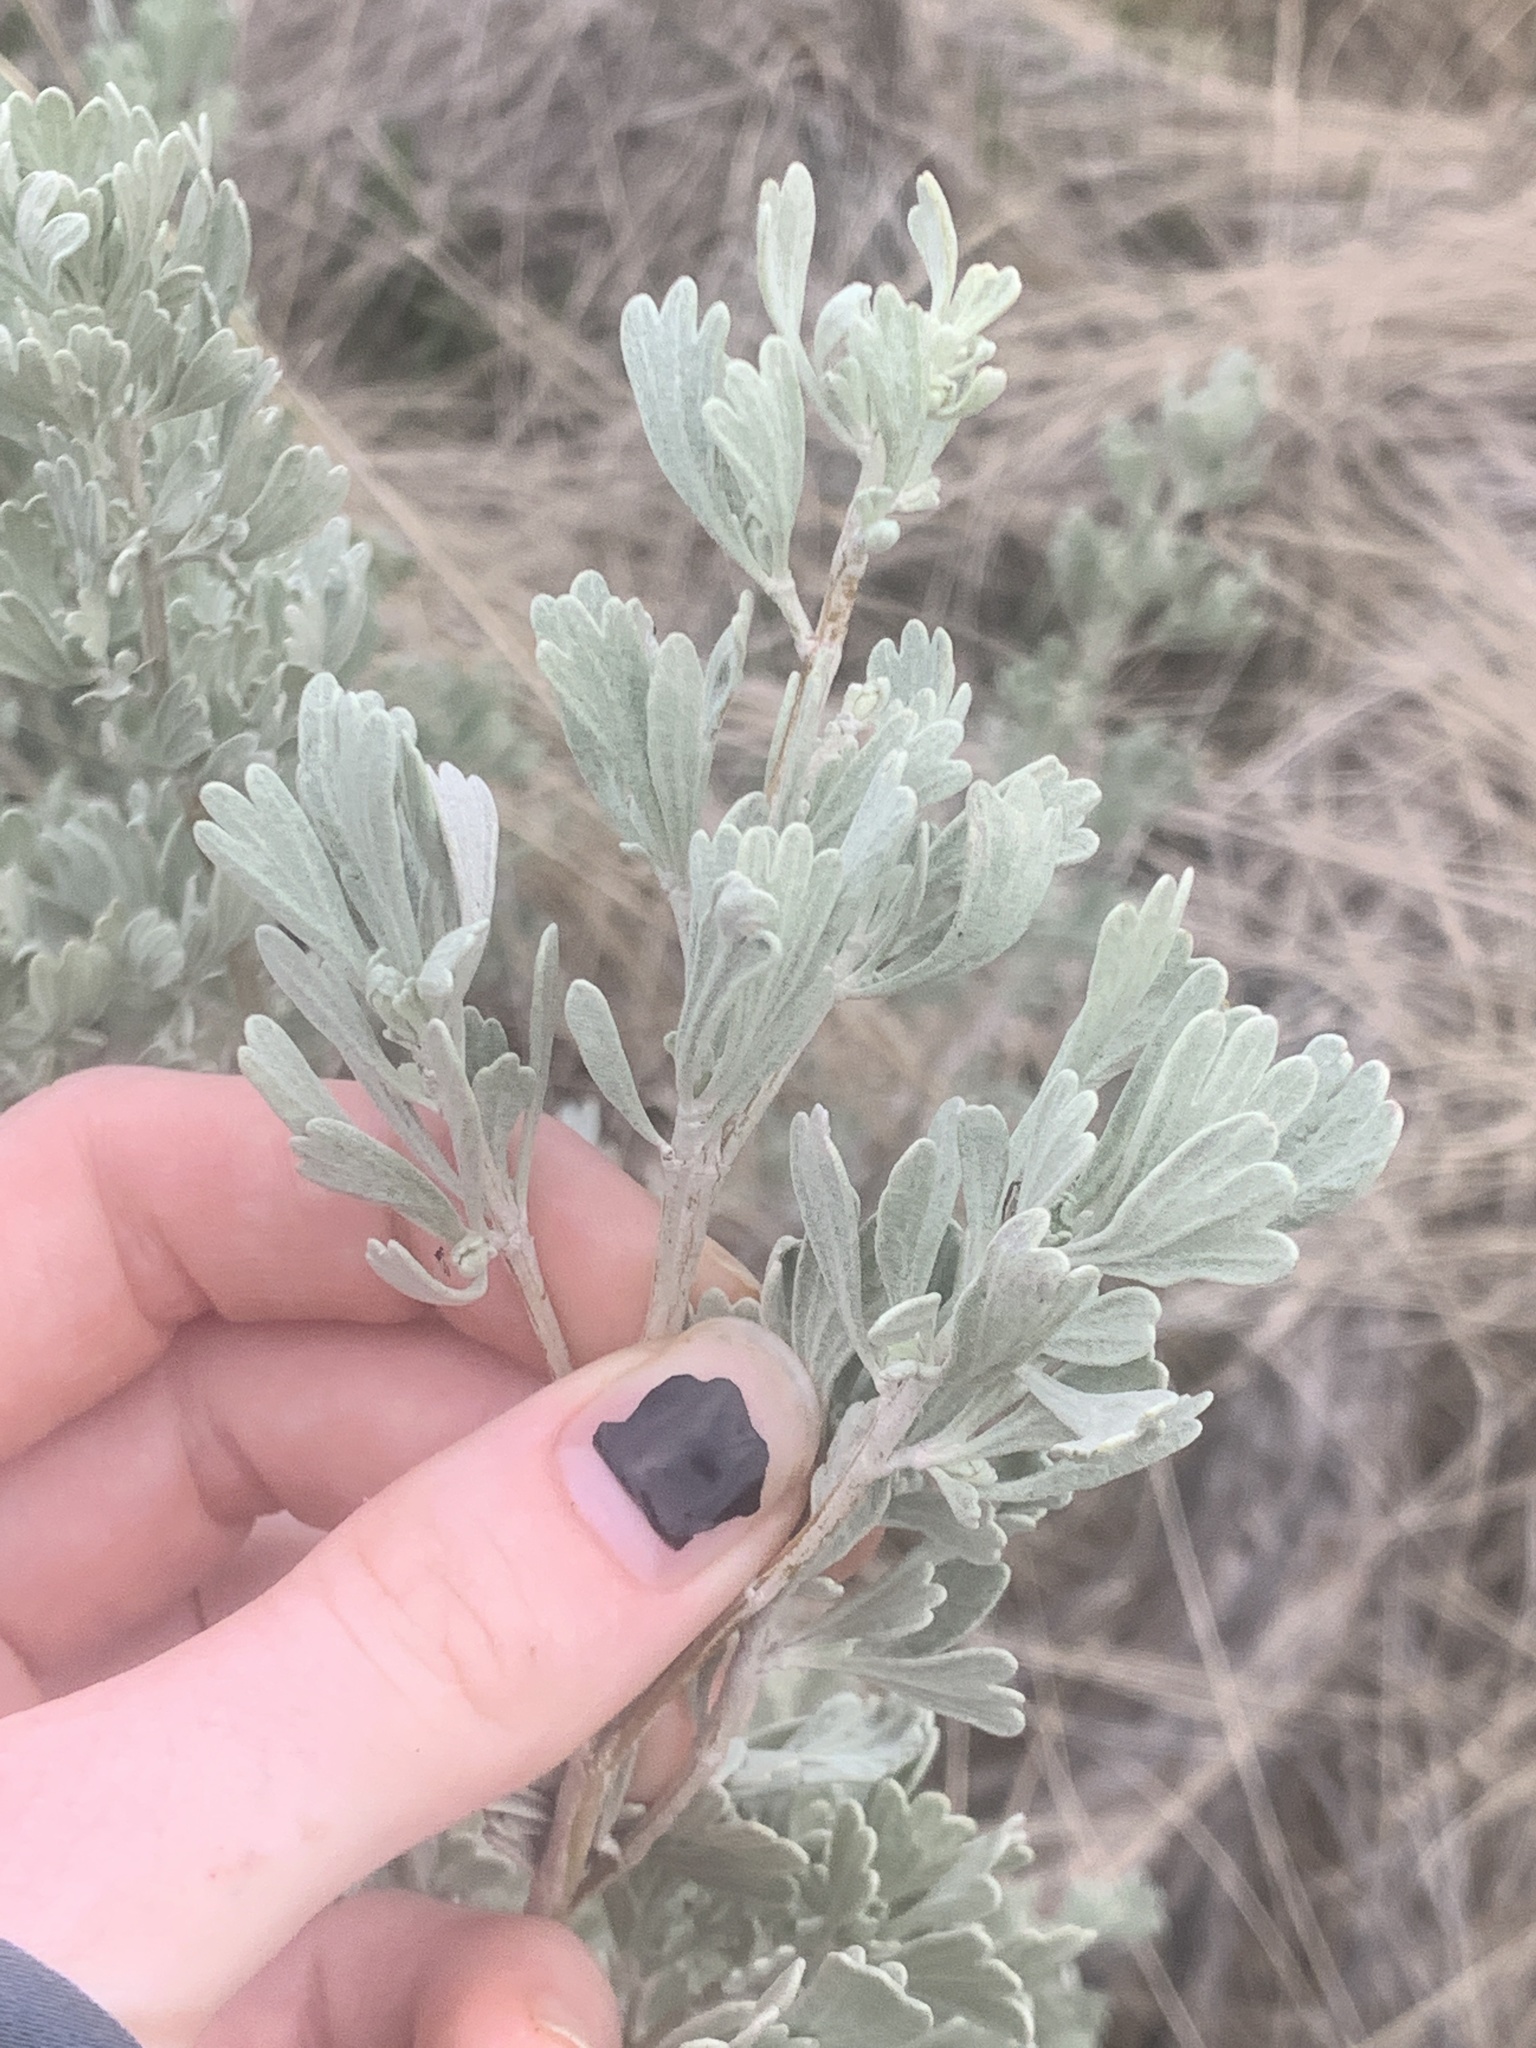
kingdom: Plantae
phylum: Tracheophyta
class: Magnoliopsida
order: Asterales
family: Asteraceae
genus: Artemisia
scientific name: Artemisia tridentata
